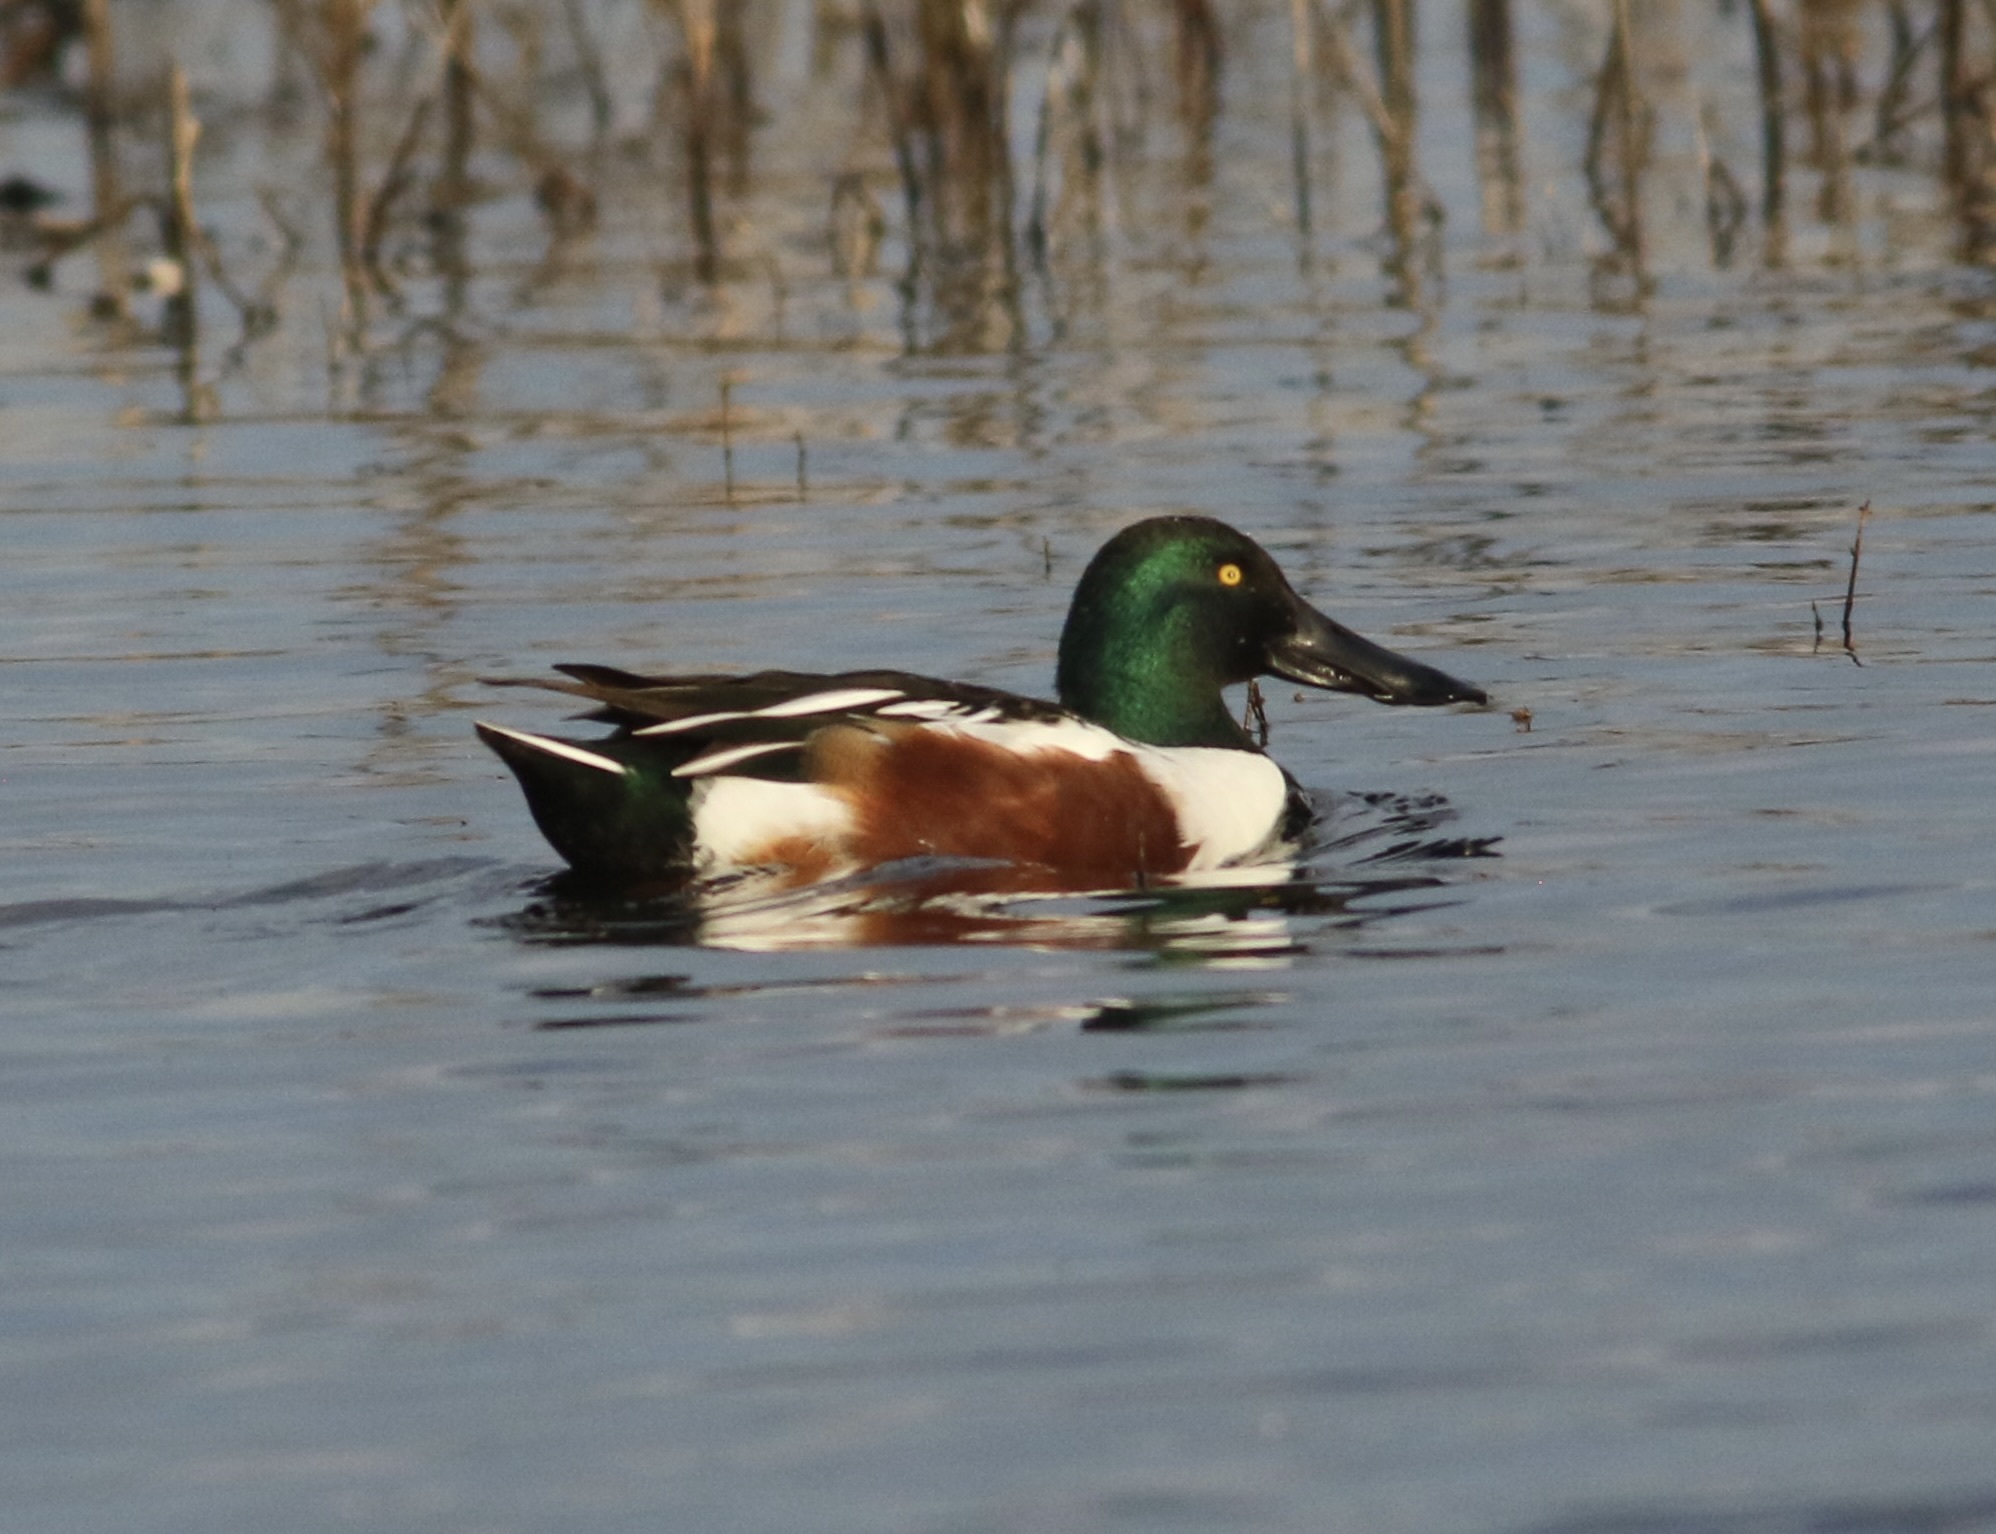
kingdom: Animalia
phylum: Chordata
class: Aves
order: Anseriformes
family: Anatidae
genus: Spatula
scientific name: Spatula clypeata
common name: Northern shoveler
